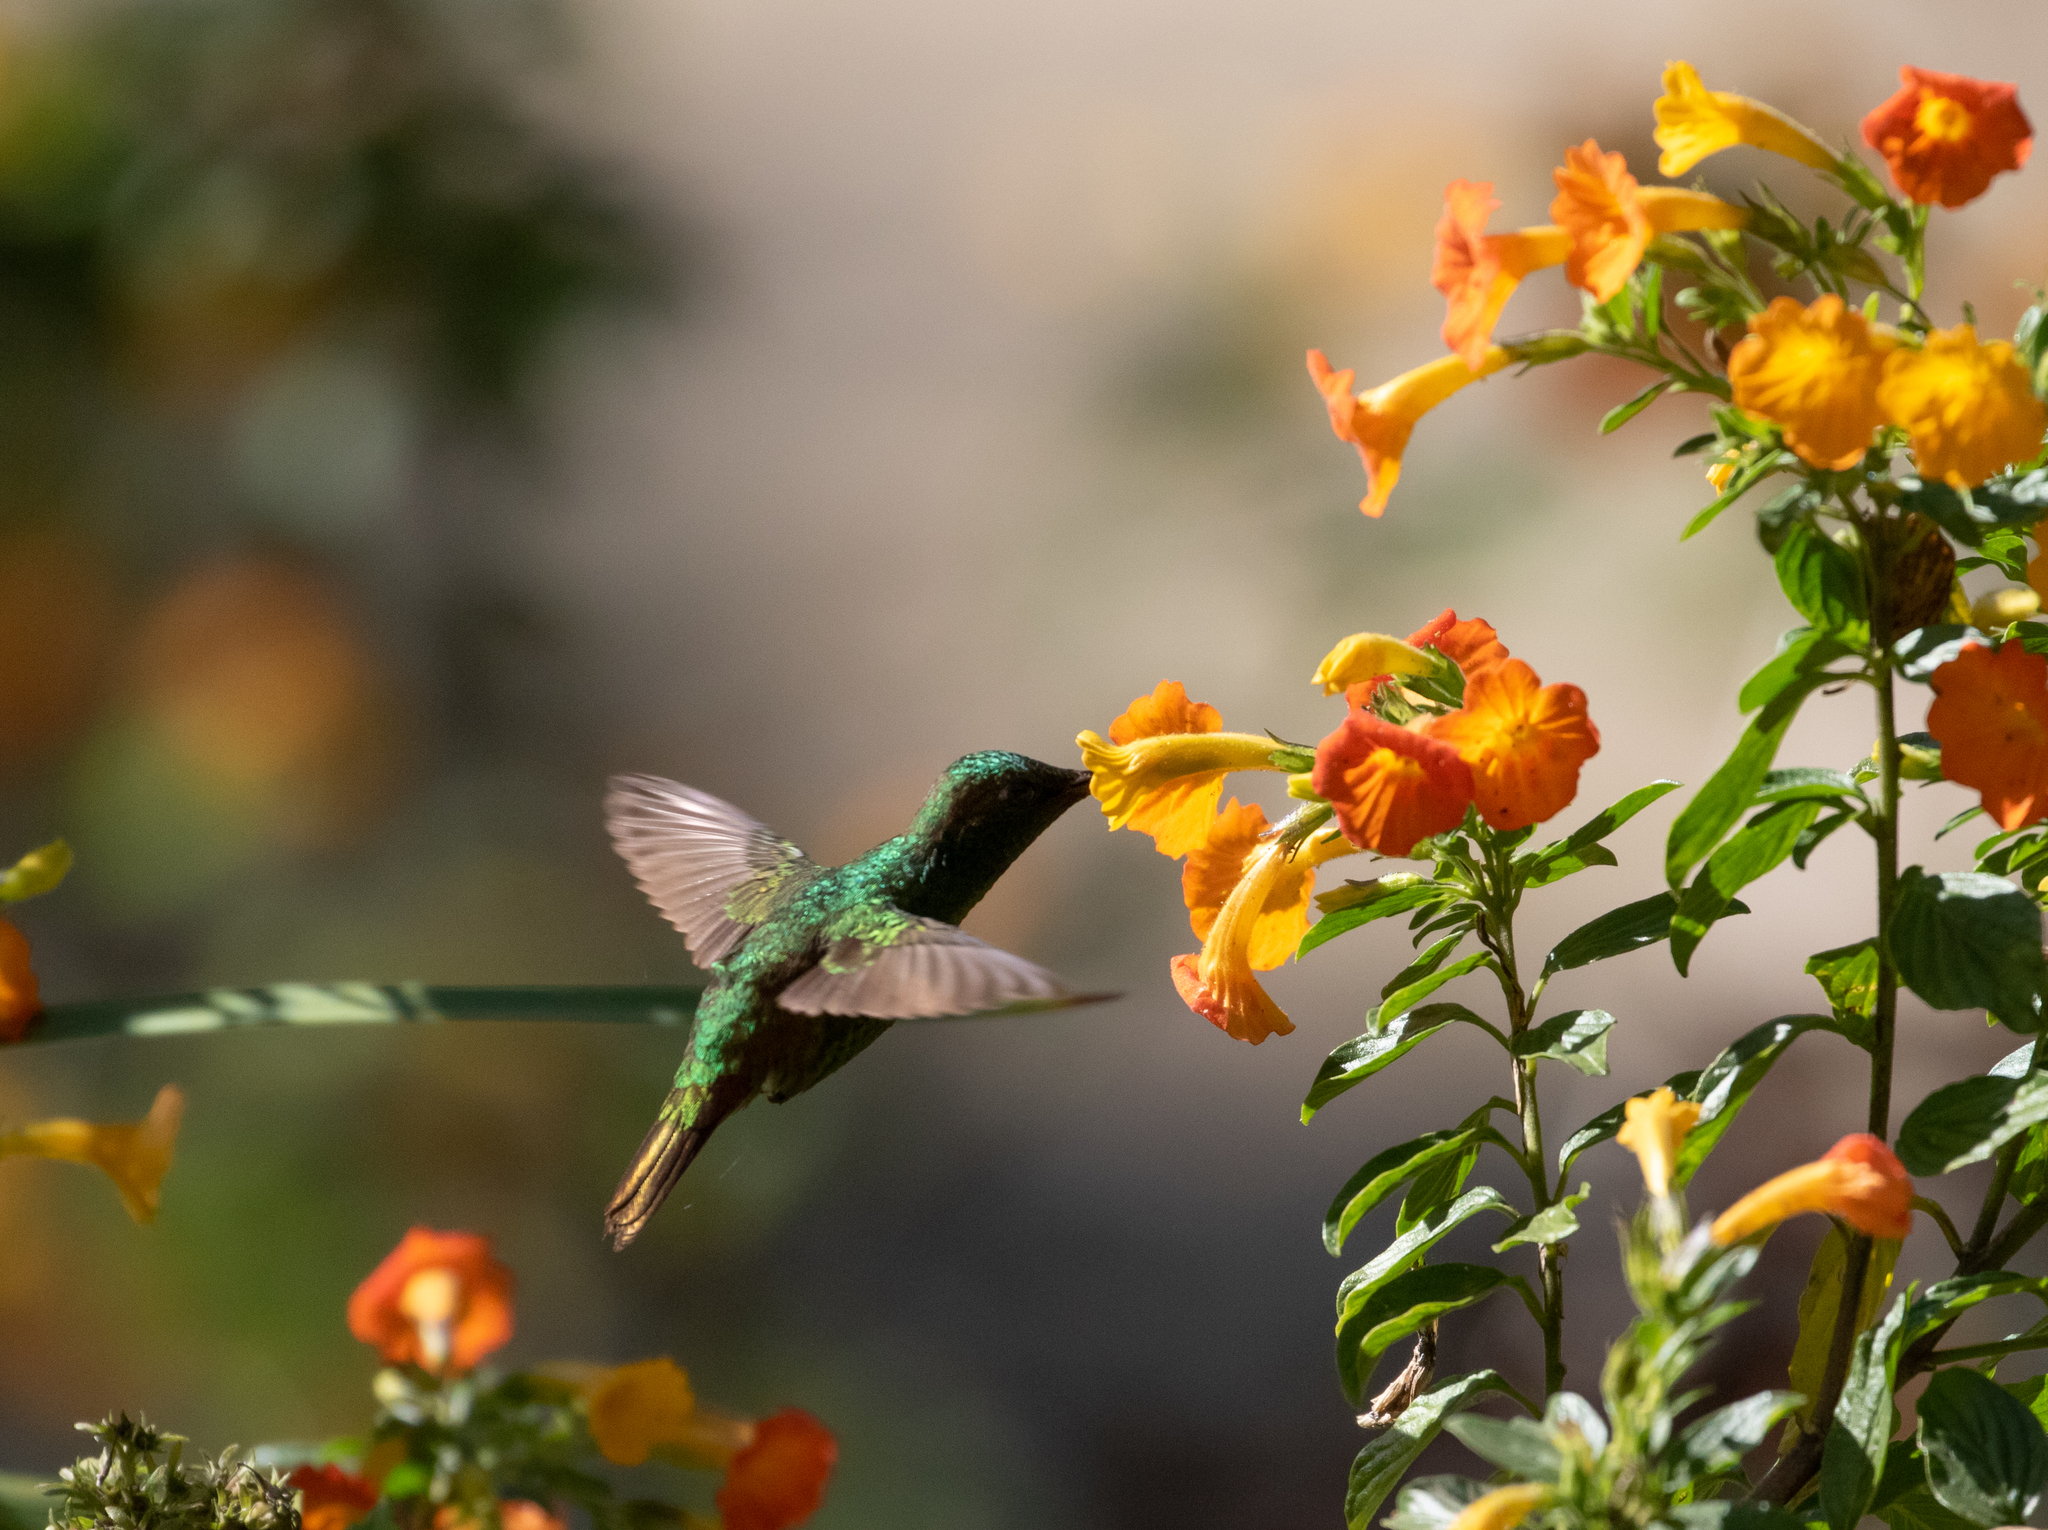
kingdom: Animalia
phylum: Chordata
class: Aves
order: Apodiformes
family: Trochilidae
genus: Saucerottia
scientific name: Saucerottia saucerottei
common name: Steely-vented hummingbird
